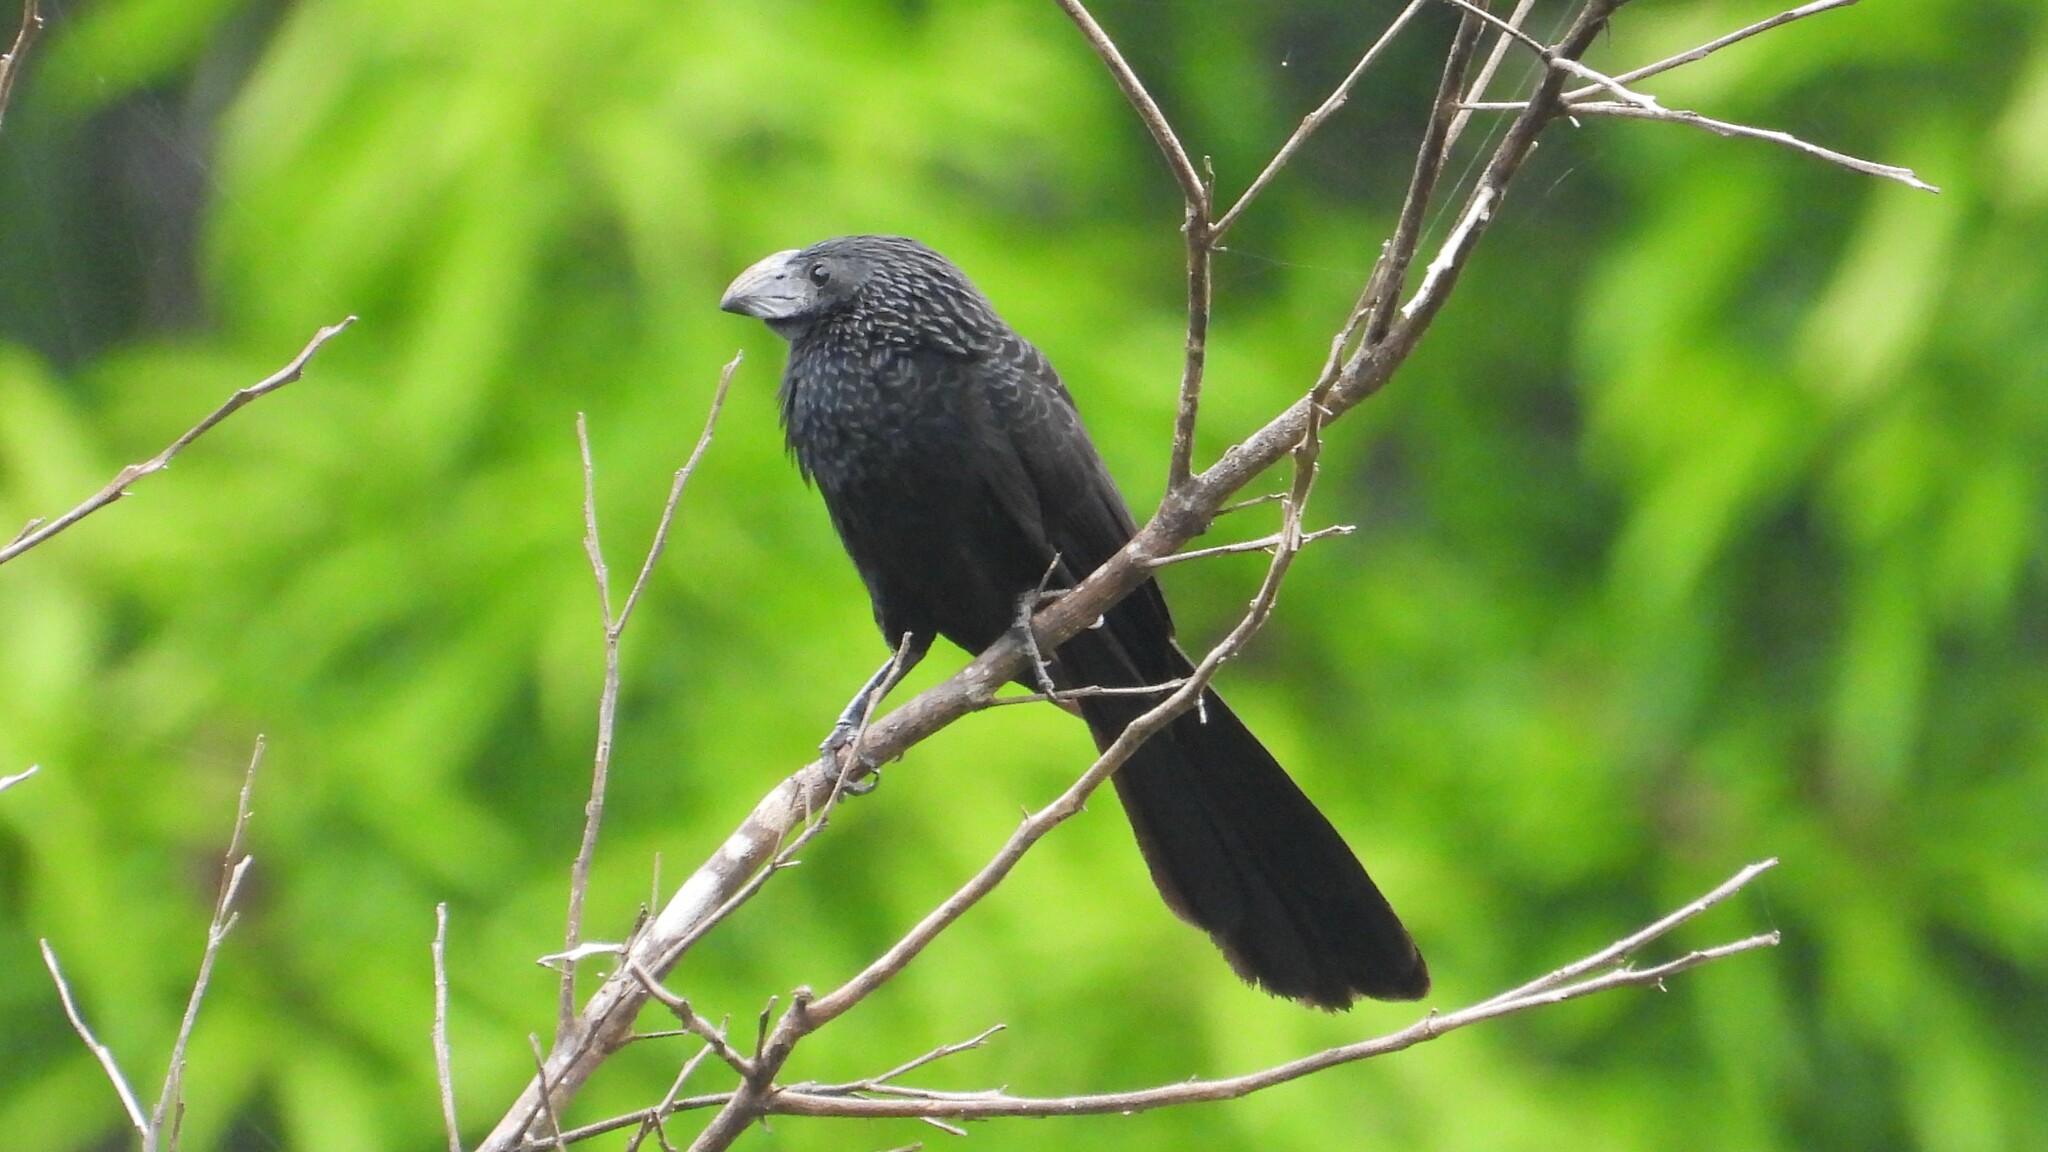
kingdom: Animalia
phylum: Chordata
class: Aves
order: Cuculiformes
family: Cuculidae
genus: Crotophaga
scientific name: Crotophaga sulcirostris
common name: Groove-billed ani
